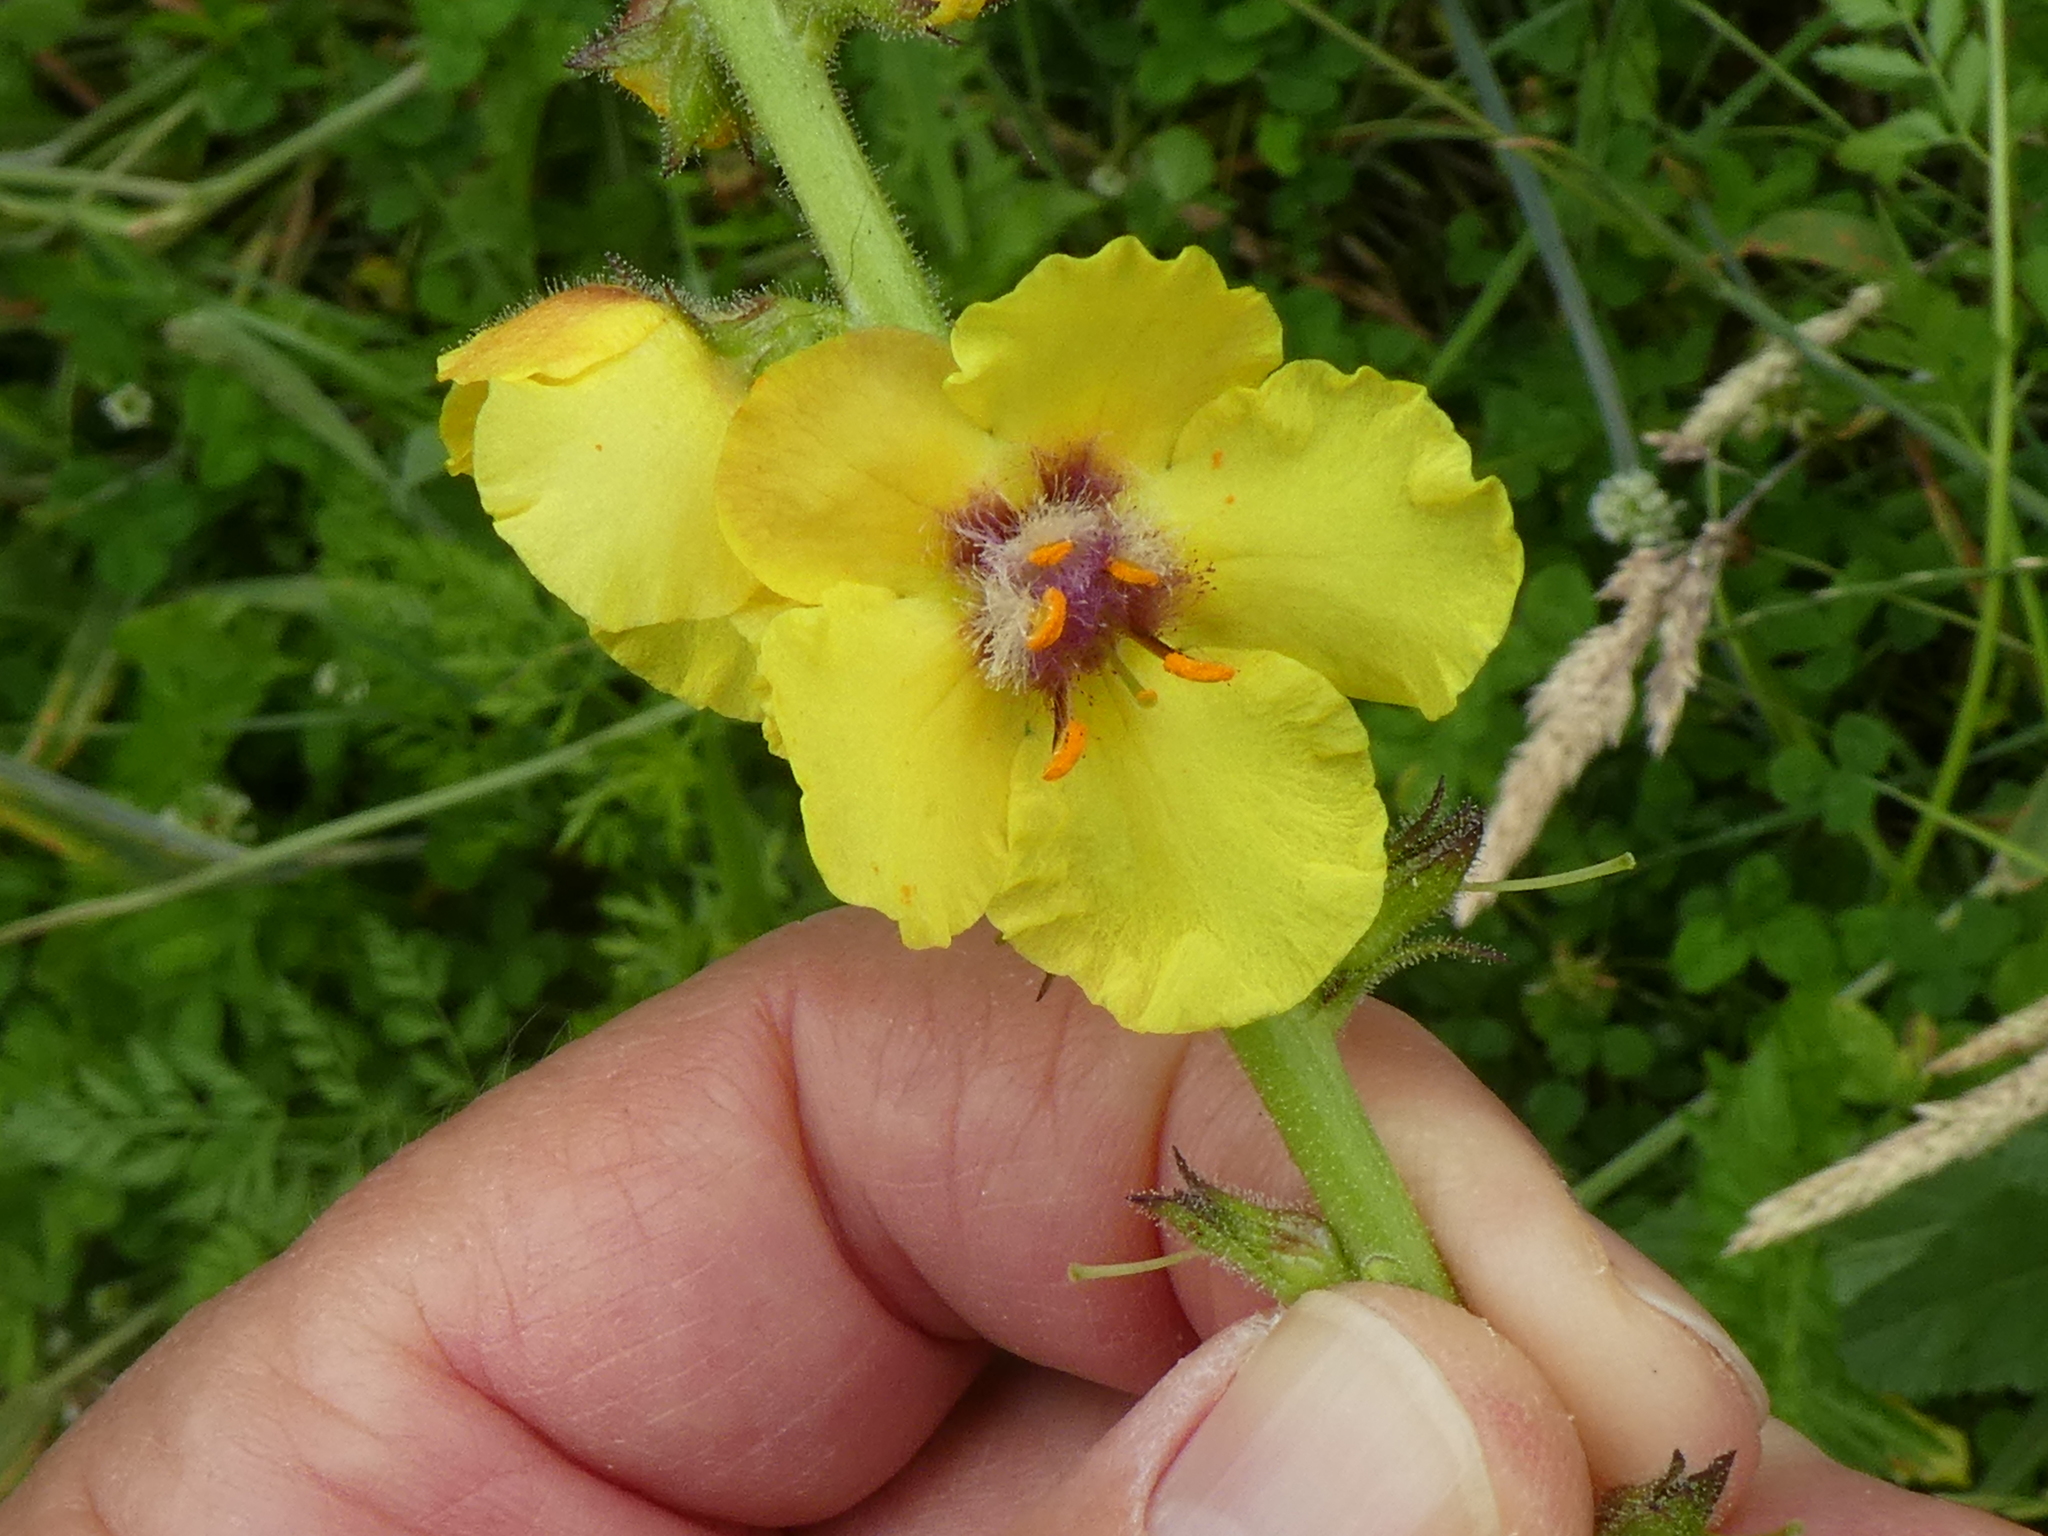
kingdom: Plantae
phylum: Tracheophyta
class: Magnoliopsida
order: Lamiales
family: Scrophulariaceae
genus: Verbascum
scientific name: Verbascum virgatum
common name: Twiggy mullein
